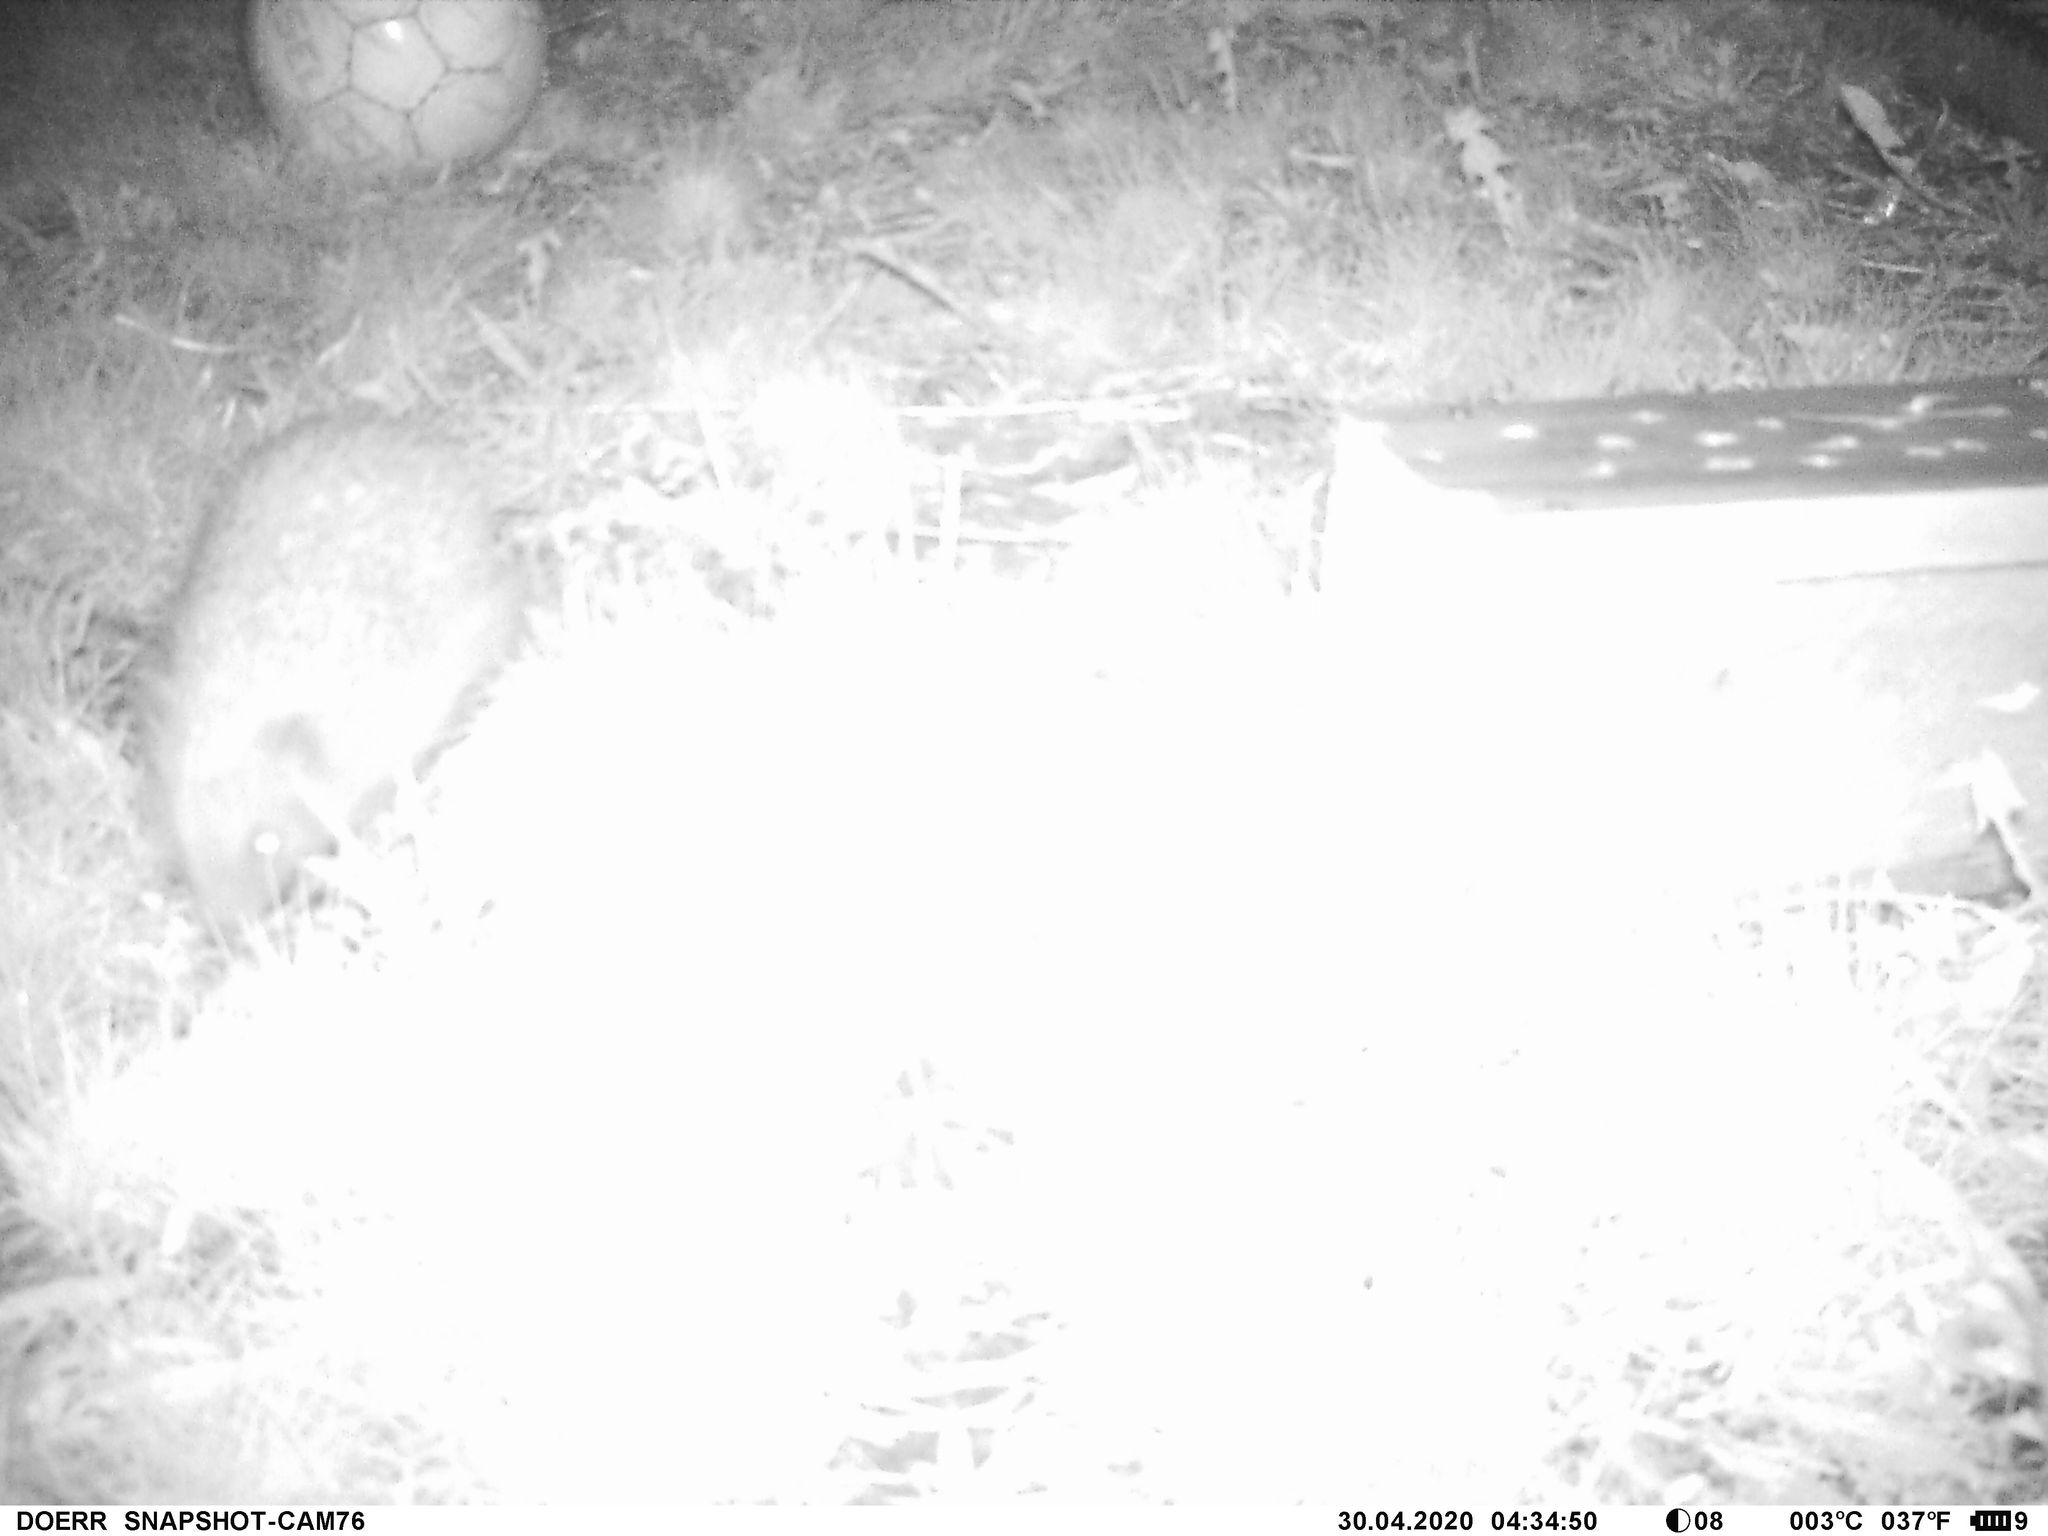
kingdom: Animalia
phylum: Chordata
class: Mammalia
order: Erinaceomorpha
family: Erinaceidae
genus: Erinaceus
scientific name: Erinaceus europaeus
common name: West european hedgehog
